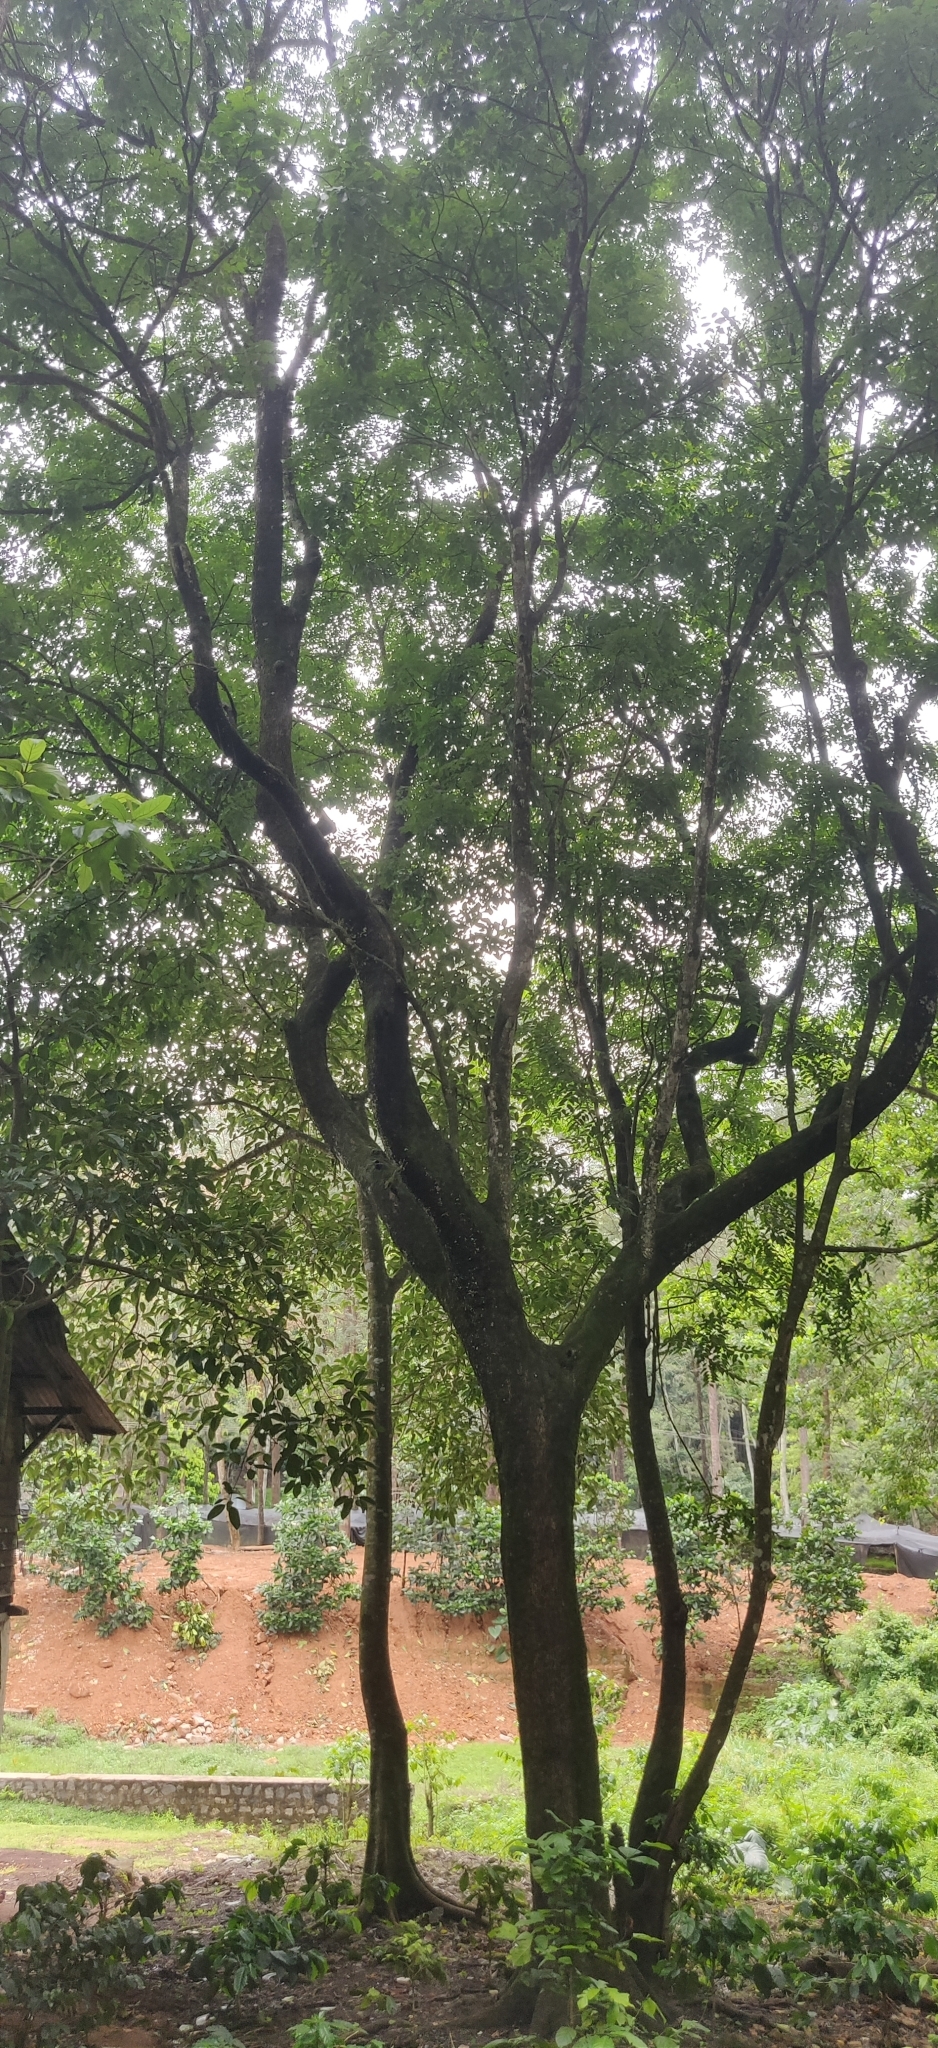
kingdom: Plantae
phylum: Tracheophyta
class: Magnoliopsida
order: Sapindales
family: Meliaceae
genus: Heynea
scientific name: Heynea trijuga
